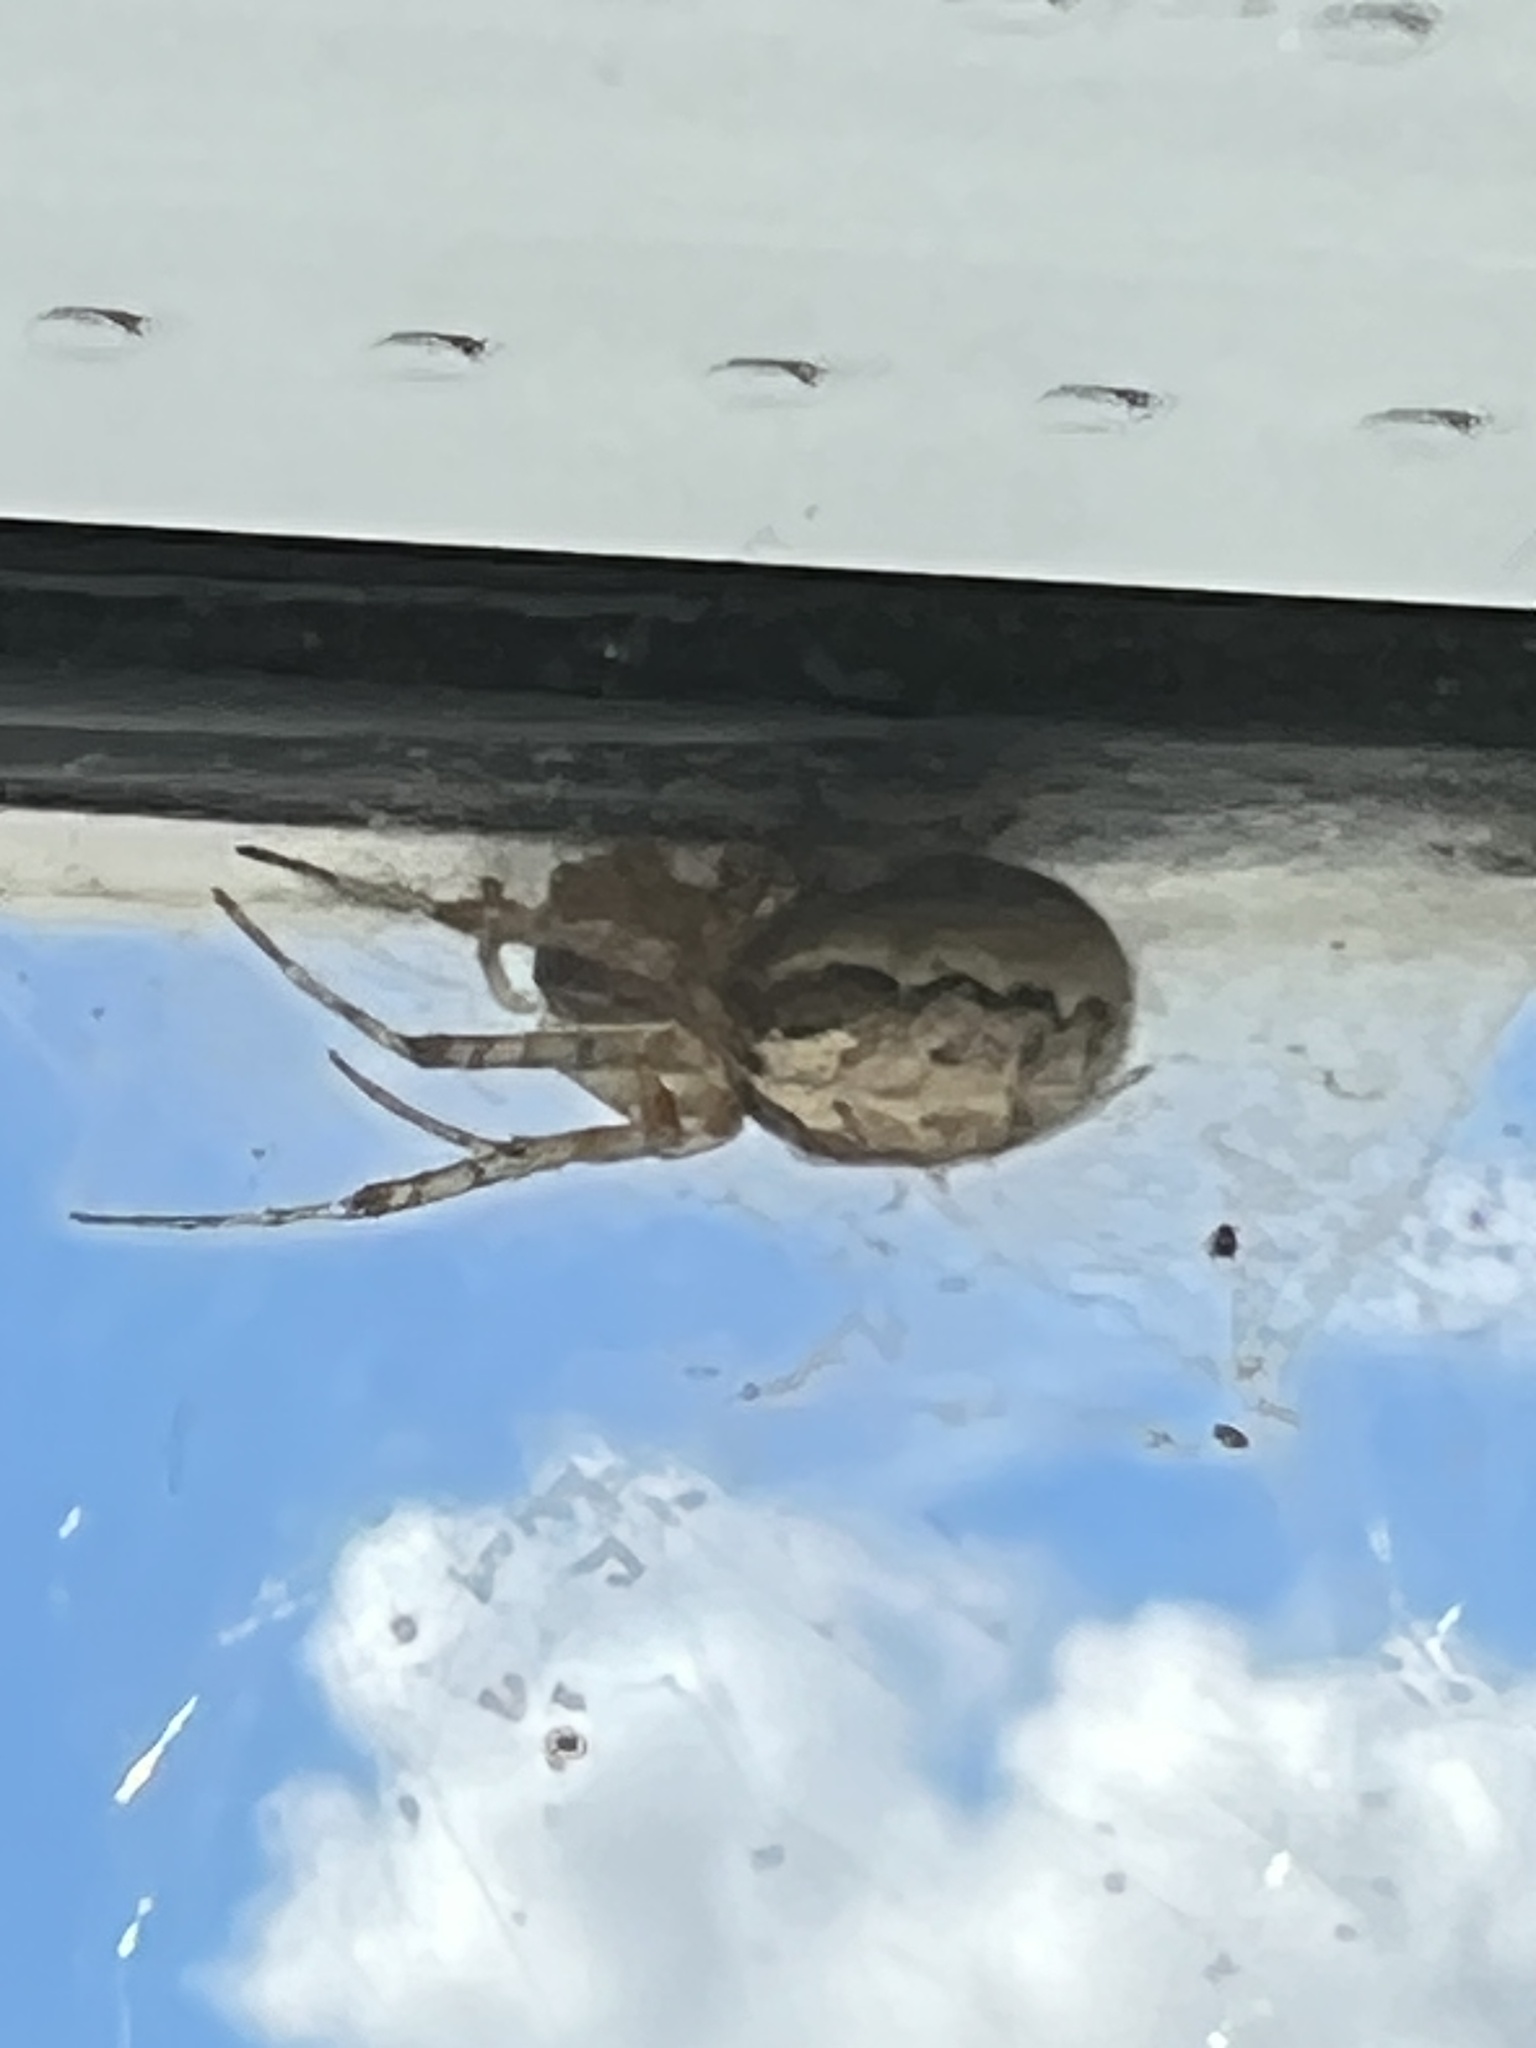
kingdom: Animalia
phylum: Arthropoda
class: Arachnida
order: Araneae
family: Araneidae
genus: Zygiella
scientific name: Zygiella x-notata
